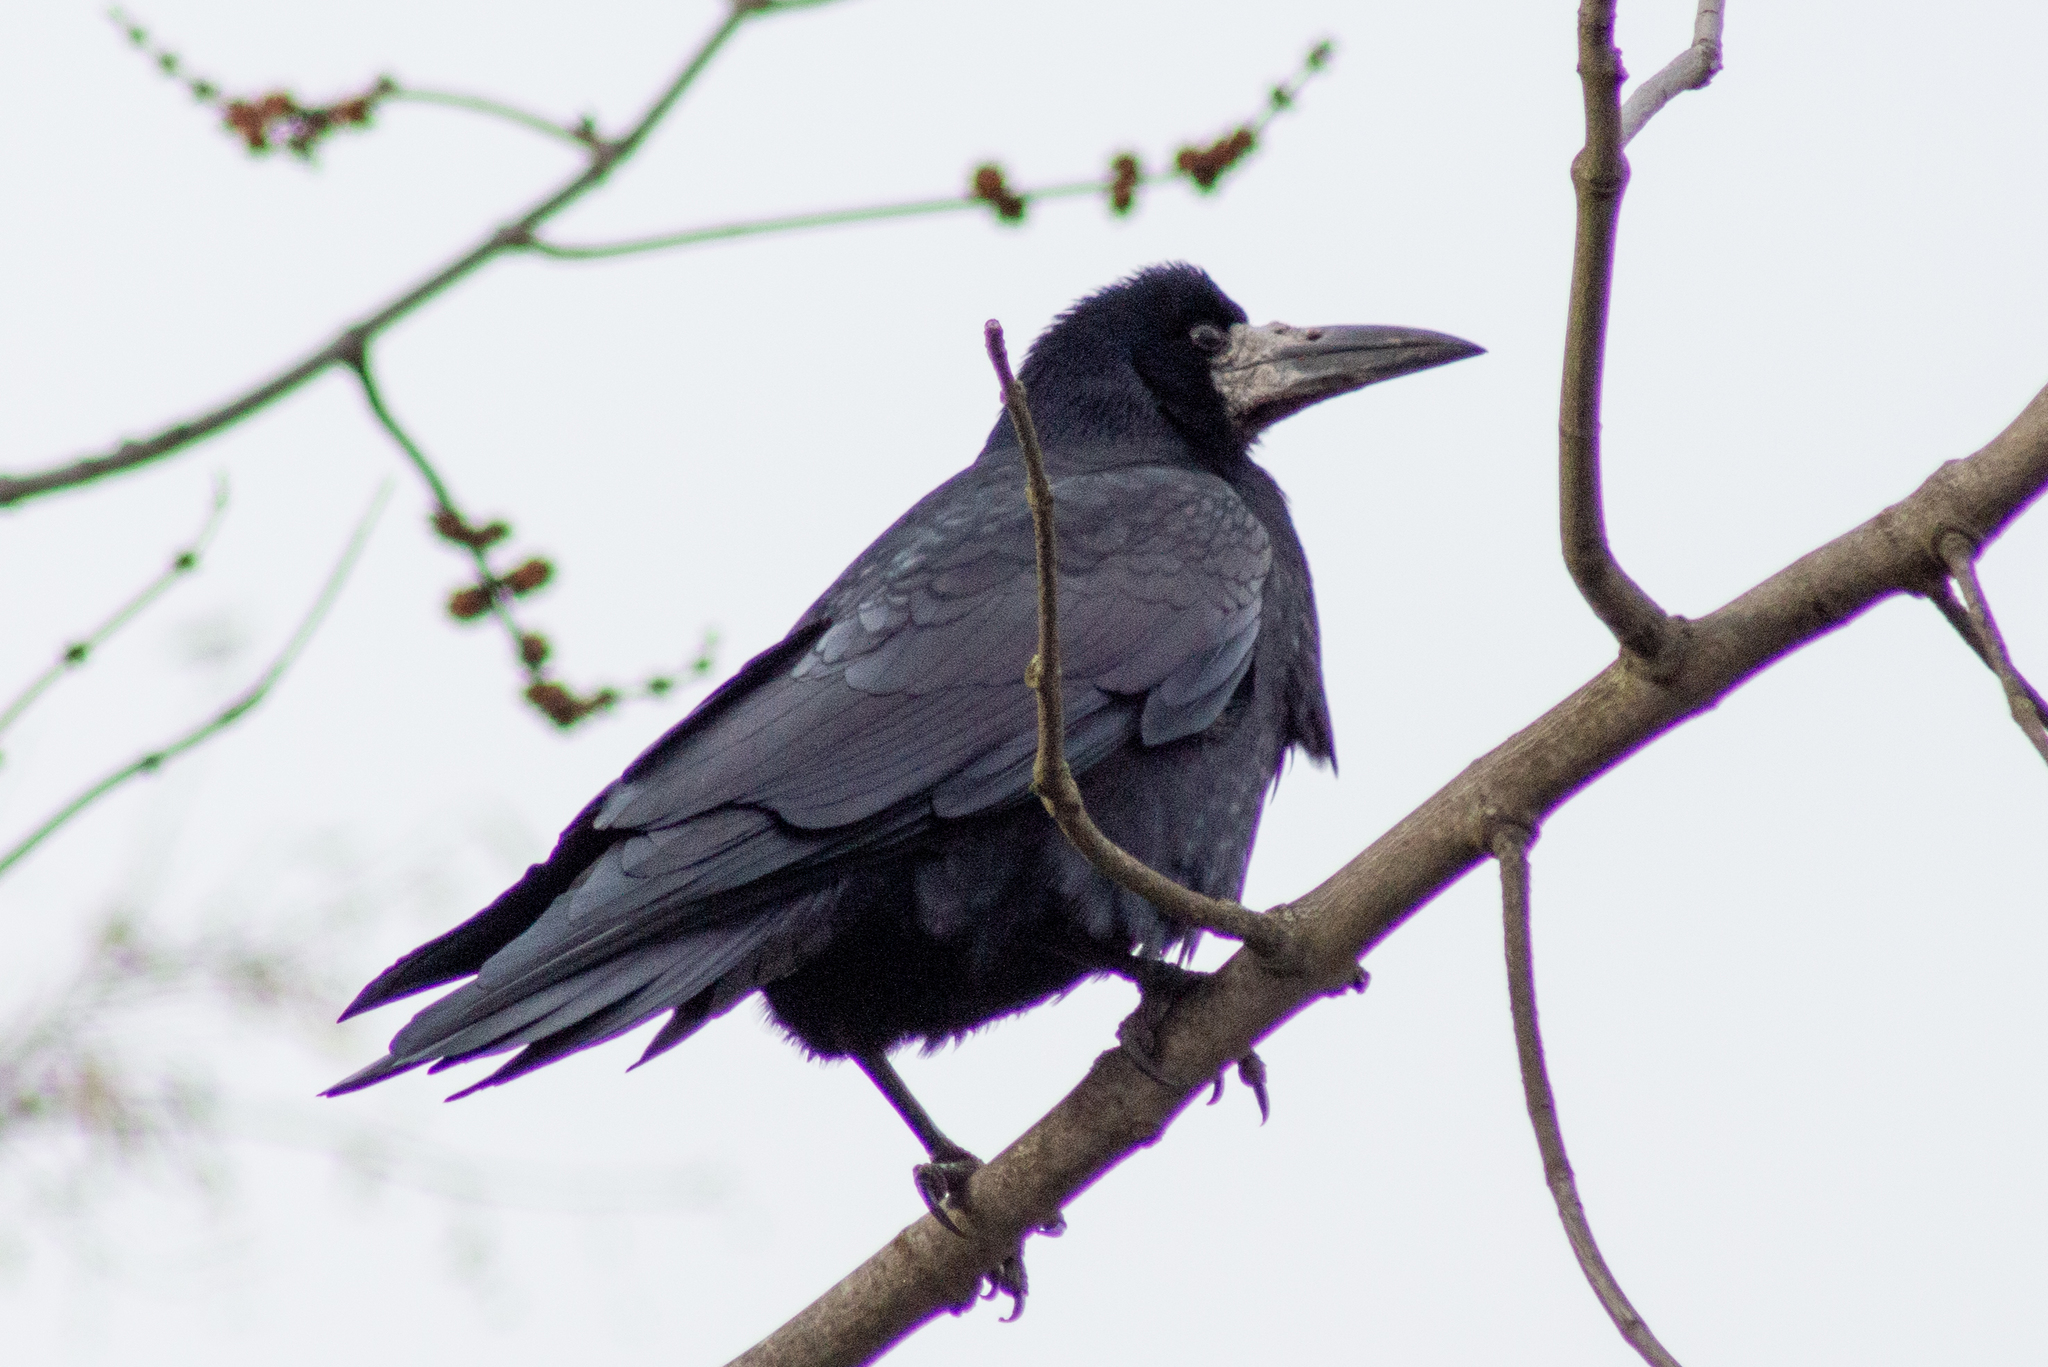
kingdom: Animalia
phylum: Chordata
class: Aves
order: Passeriformes
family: Corvidae
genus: Corvus
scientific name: Corvus frugilegus
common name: Rook
